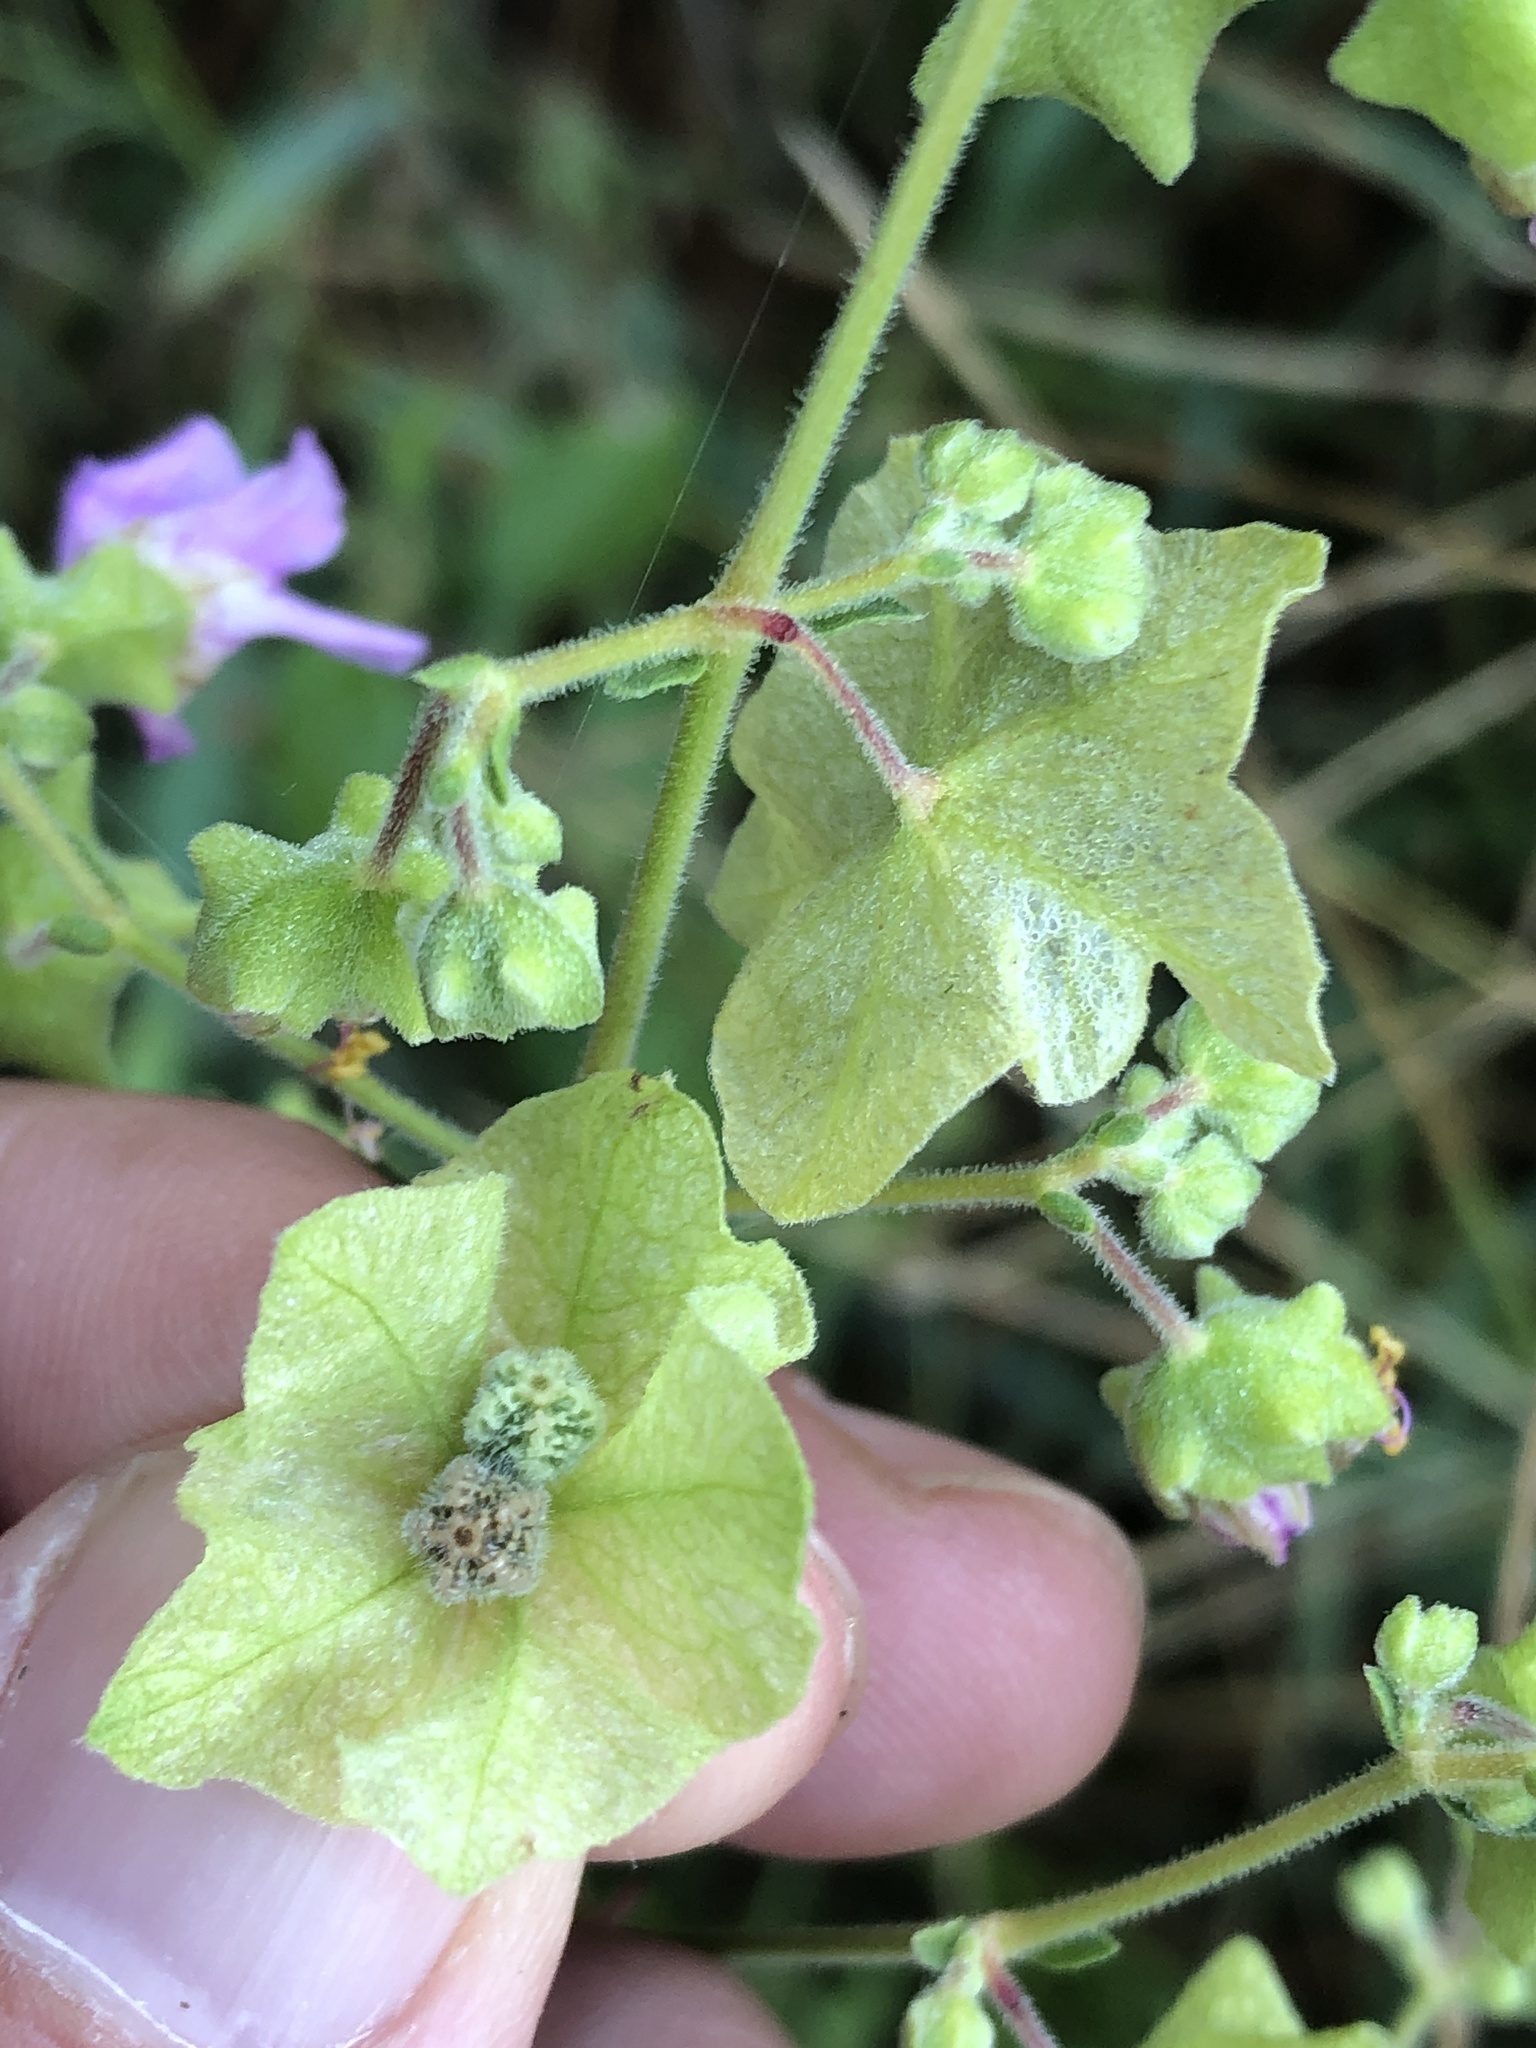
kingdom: Plantae
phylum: Tracheophyta
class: Magnoliopsida
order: Caryophyllales
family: Nyctaginaceae
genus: Mirabilis
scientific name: Mirabilis albida
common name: Hairy four-o'clock
